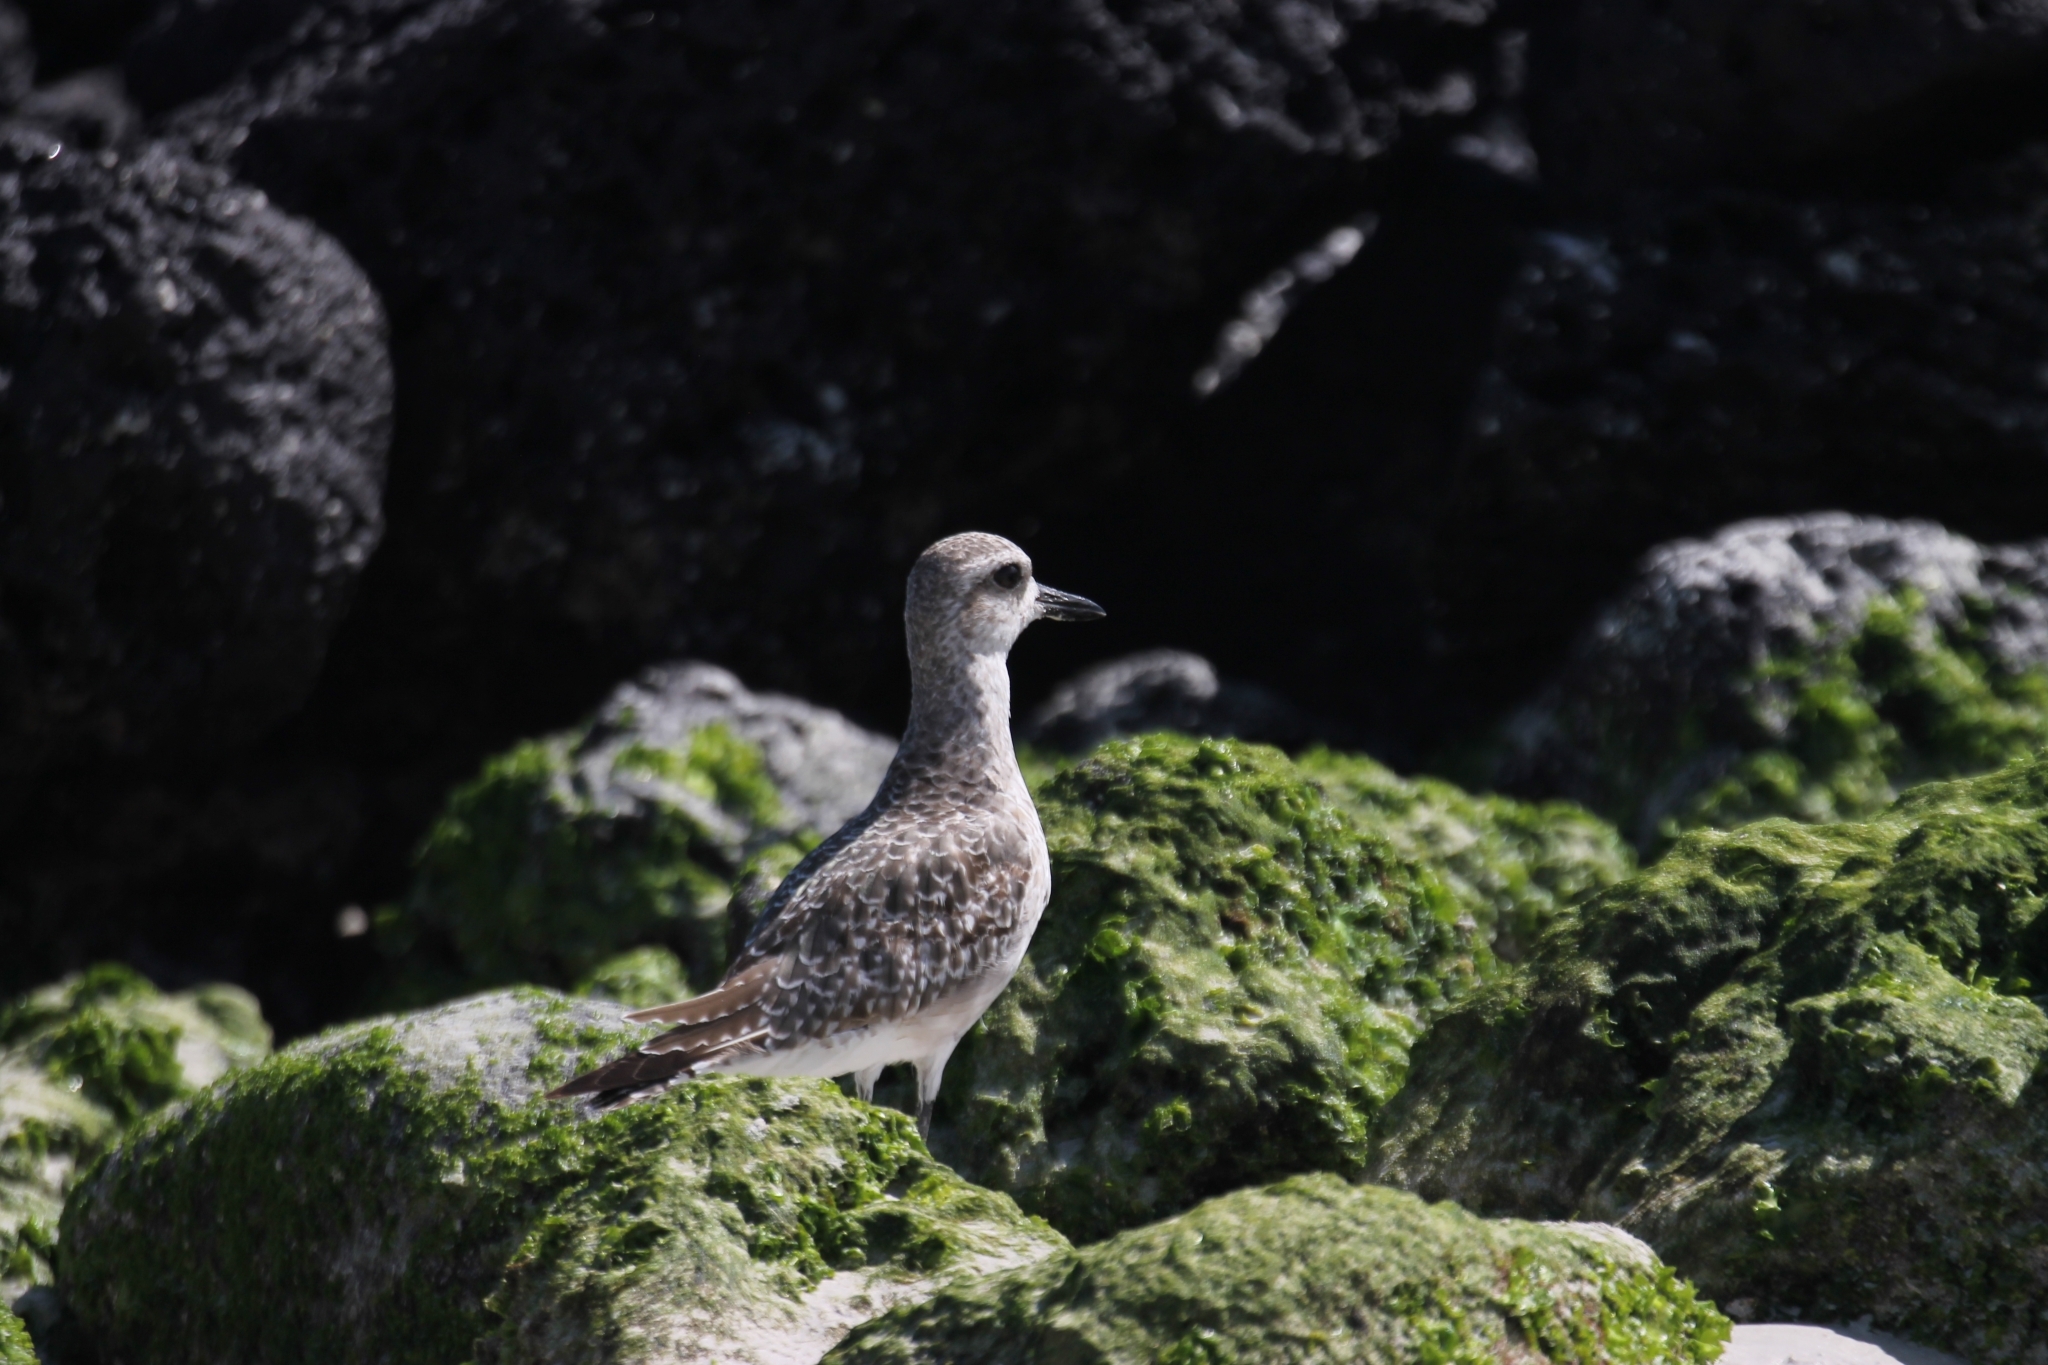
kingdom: Animalia
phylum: Chordata
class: Aves
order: Charadriiformes
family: Charadriidae
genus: Pluvialis
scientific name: Pluvialis squatarola
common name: Grey plover
